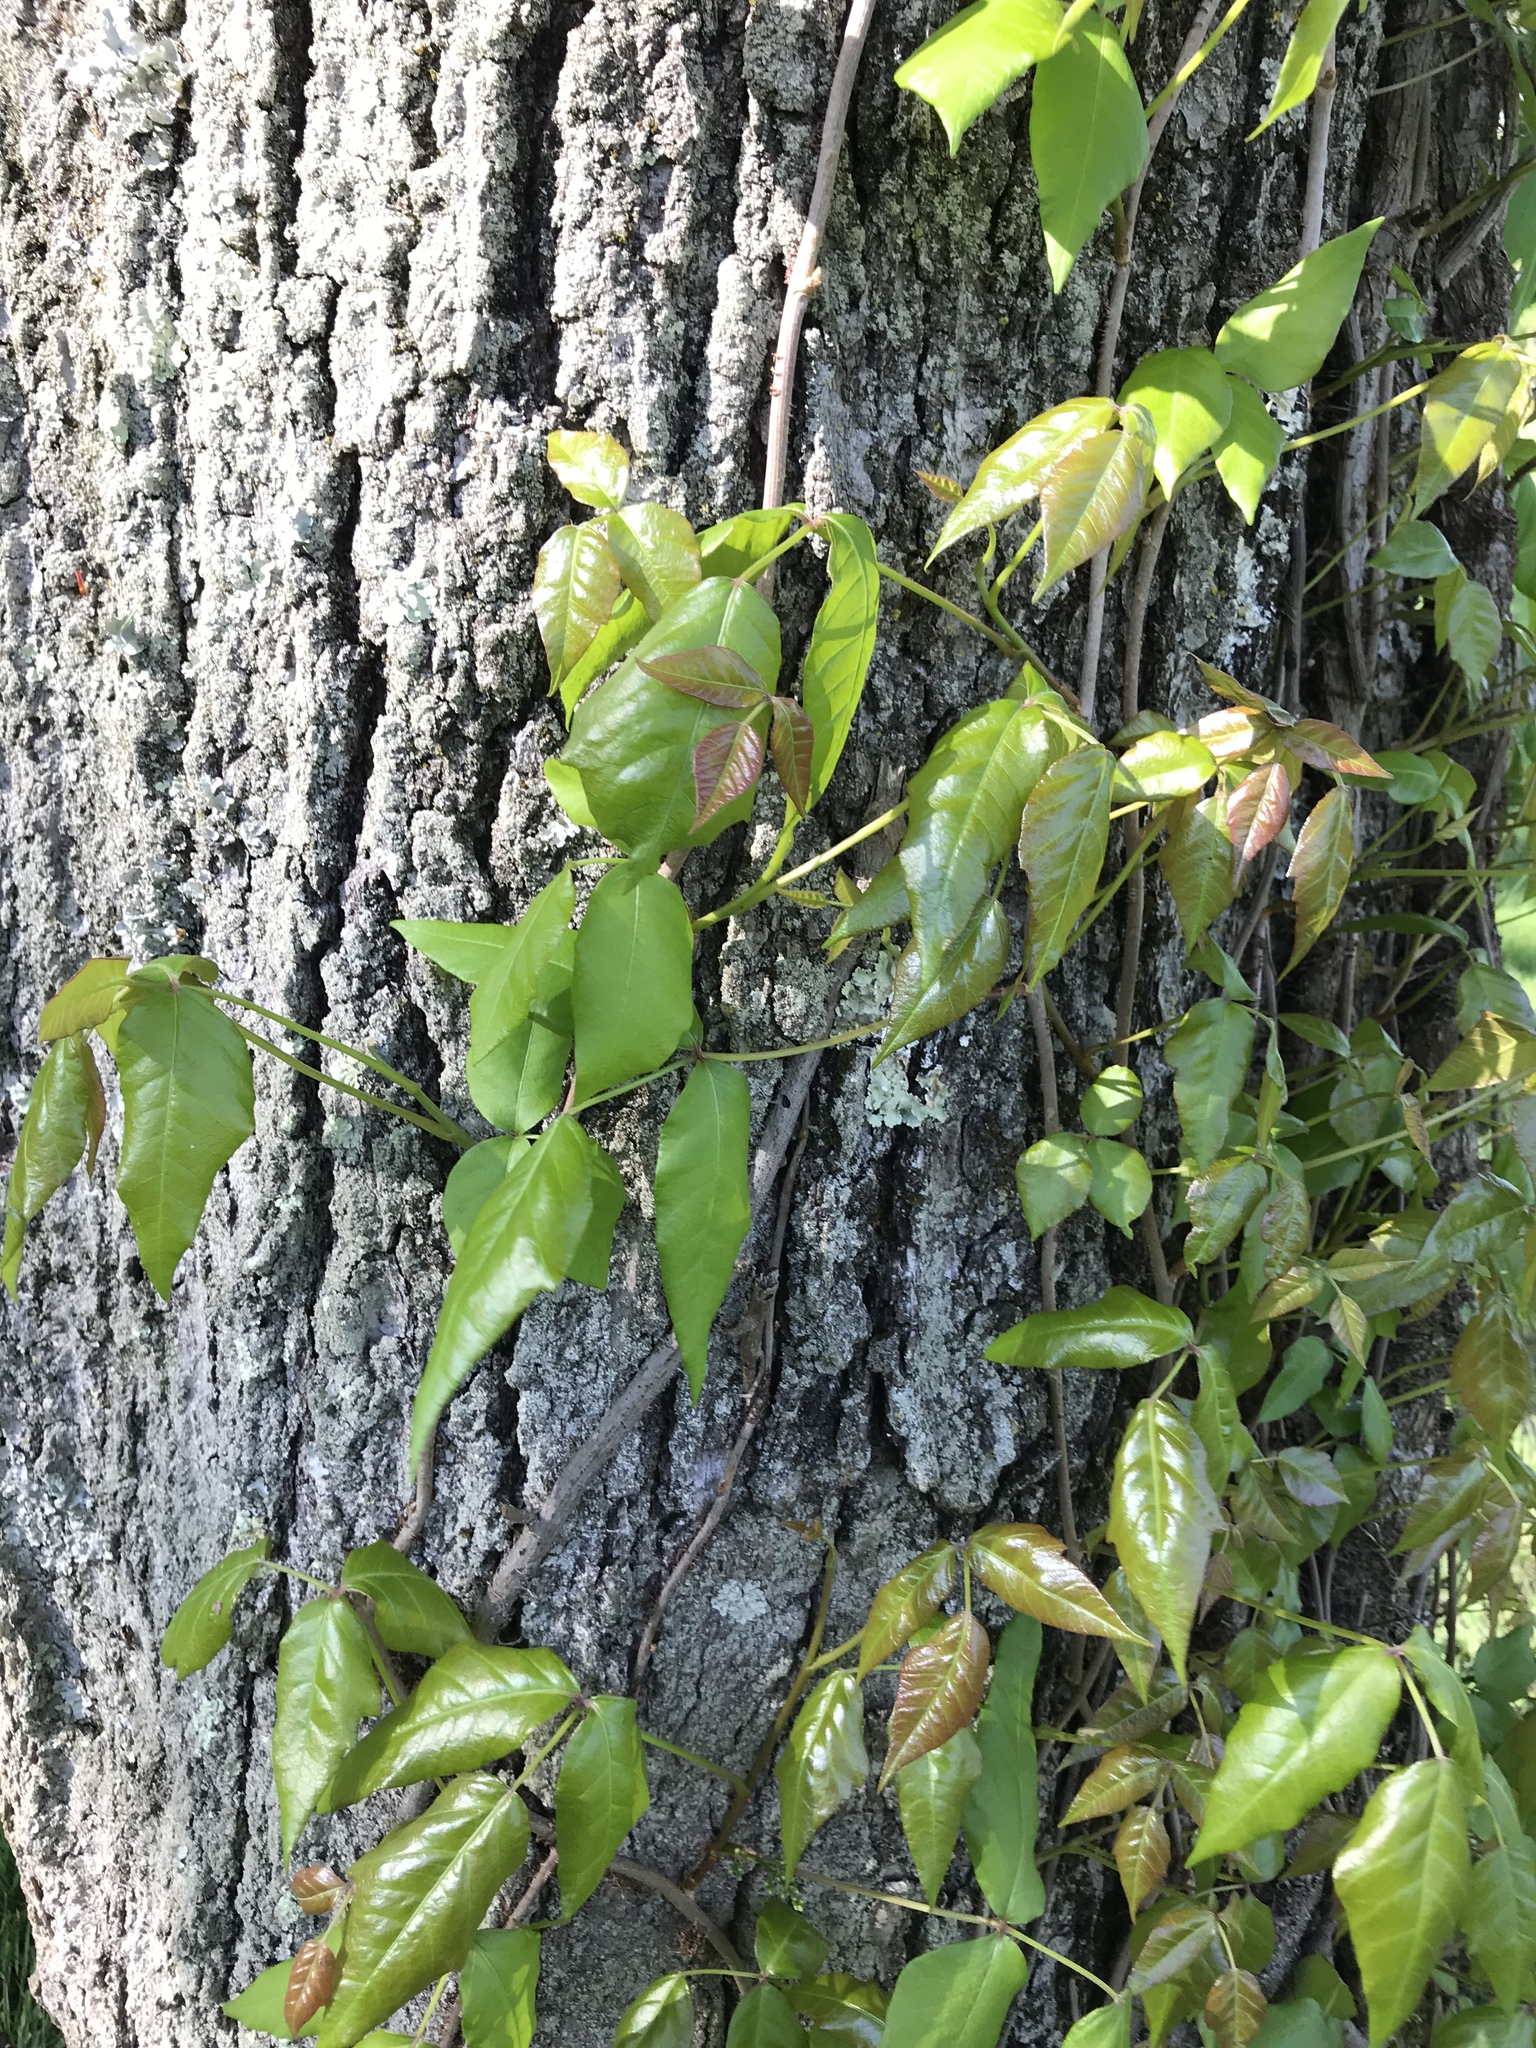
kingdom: Plantae
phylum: Tracheophyta
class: Magnoliopsida
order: Sapindales
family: Anacardiaceae
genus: Toxicodendron
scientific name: Toxicodendron radicans
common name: Poison ivy
